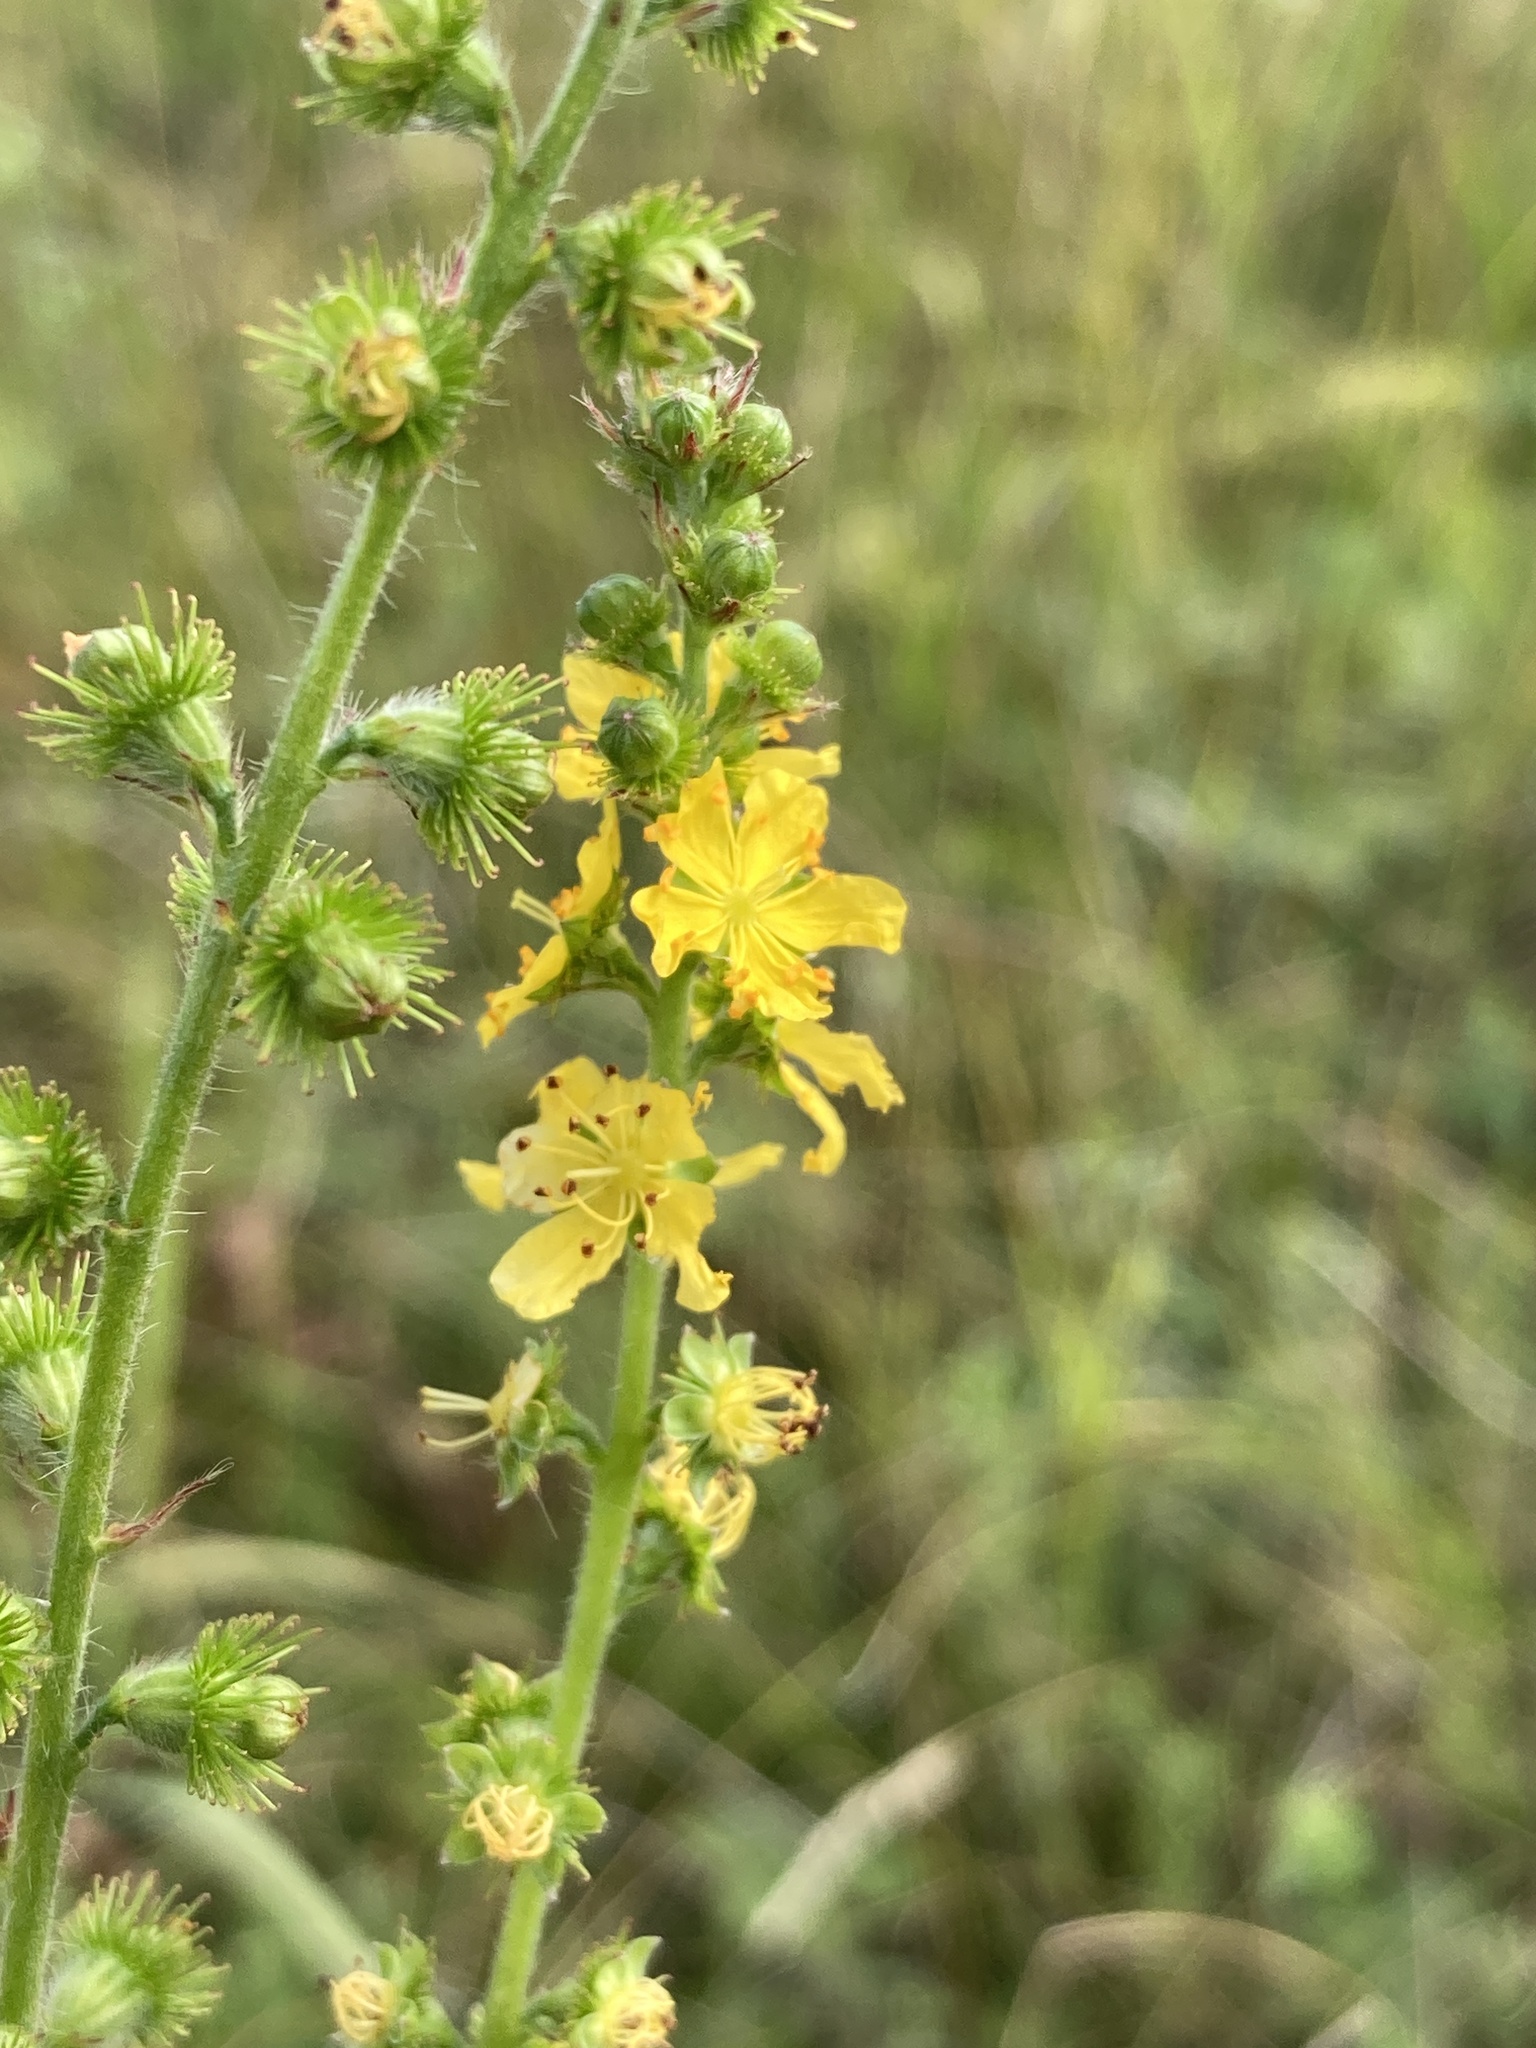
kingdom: Plantae
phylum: Tracheophyta
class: Magnoliopsida
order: Rosales
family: Rosaceae
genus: Agrimonia
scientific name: Agrimonia eupatoria
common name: Agrimony
